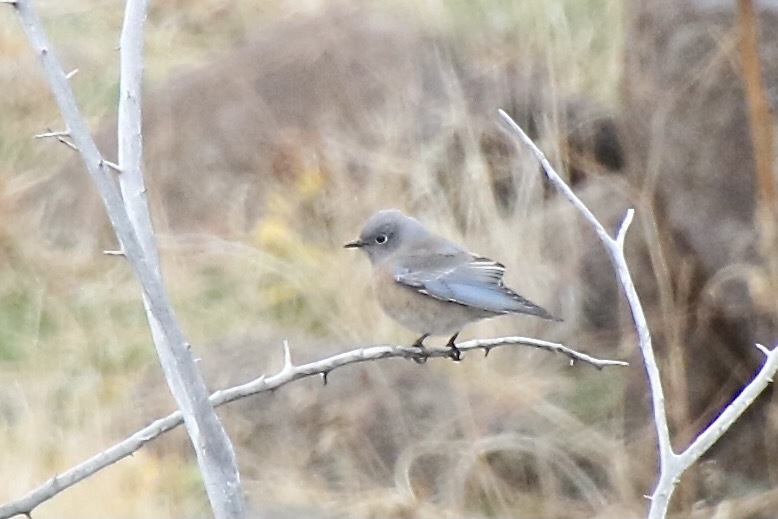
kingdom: Animalia
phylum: Chordata
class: Aves
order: Passeriformes
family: Turdidae
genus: Sialia
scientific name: Sialia mexicana
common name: Western bluebird
